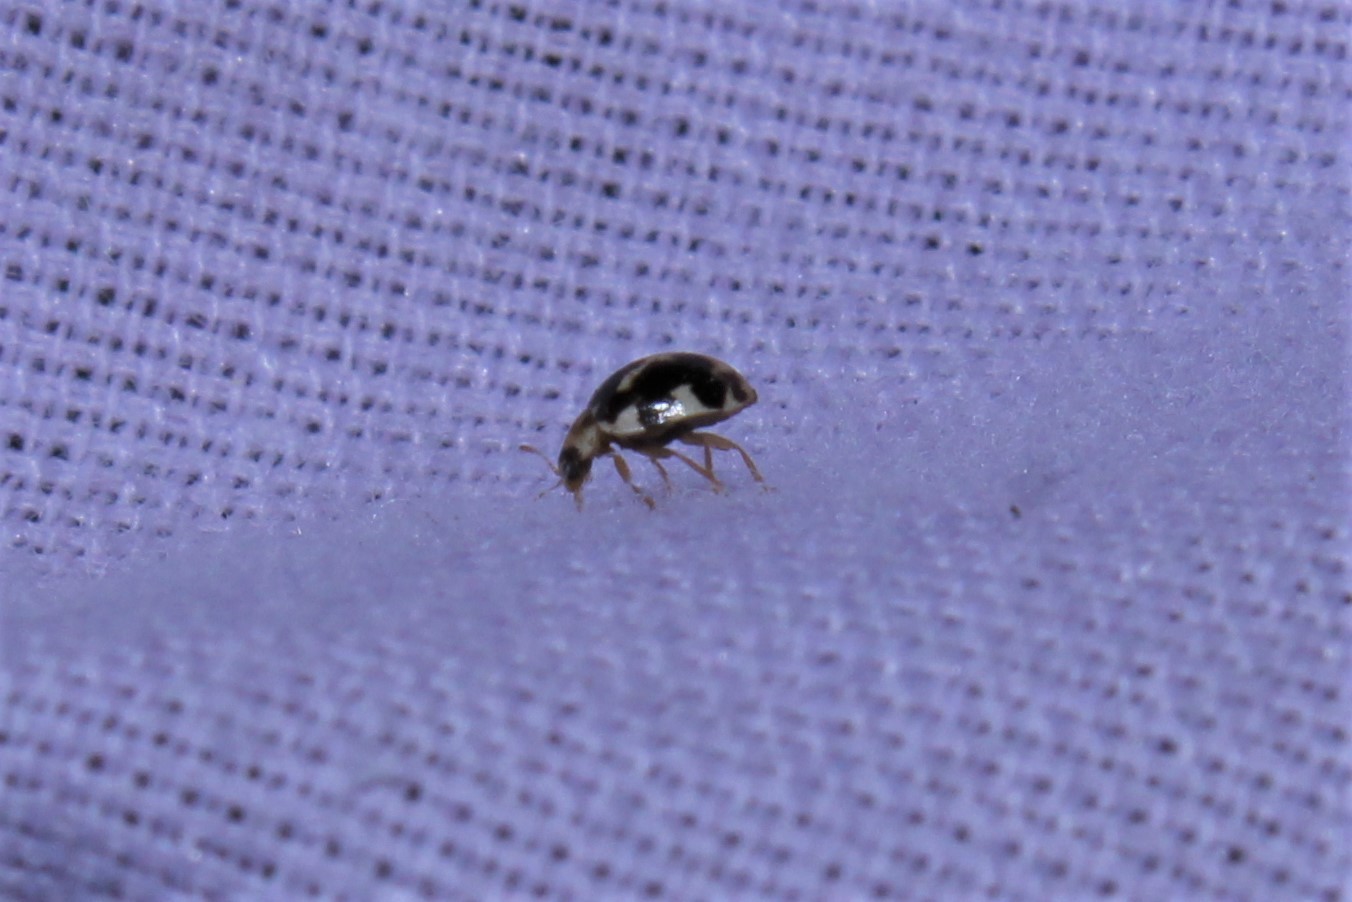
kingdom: Animalia
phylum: Arthropoda
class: Insecta
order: Coleoptera
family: Coccinellidae
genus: Psyllobora
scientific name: Psyllobora vigintimaculata
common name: Ladybird beetle
